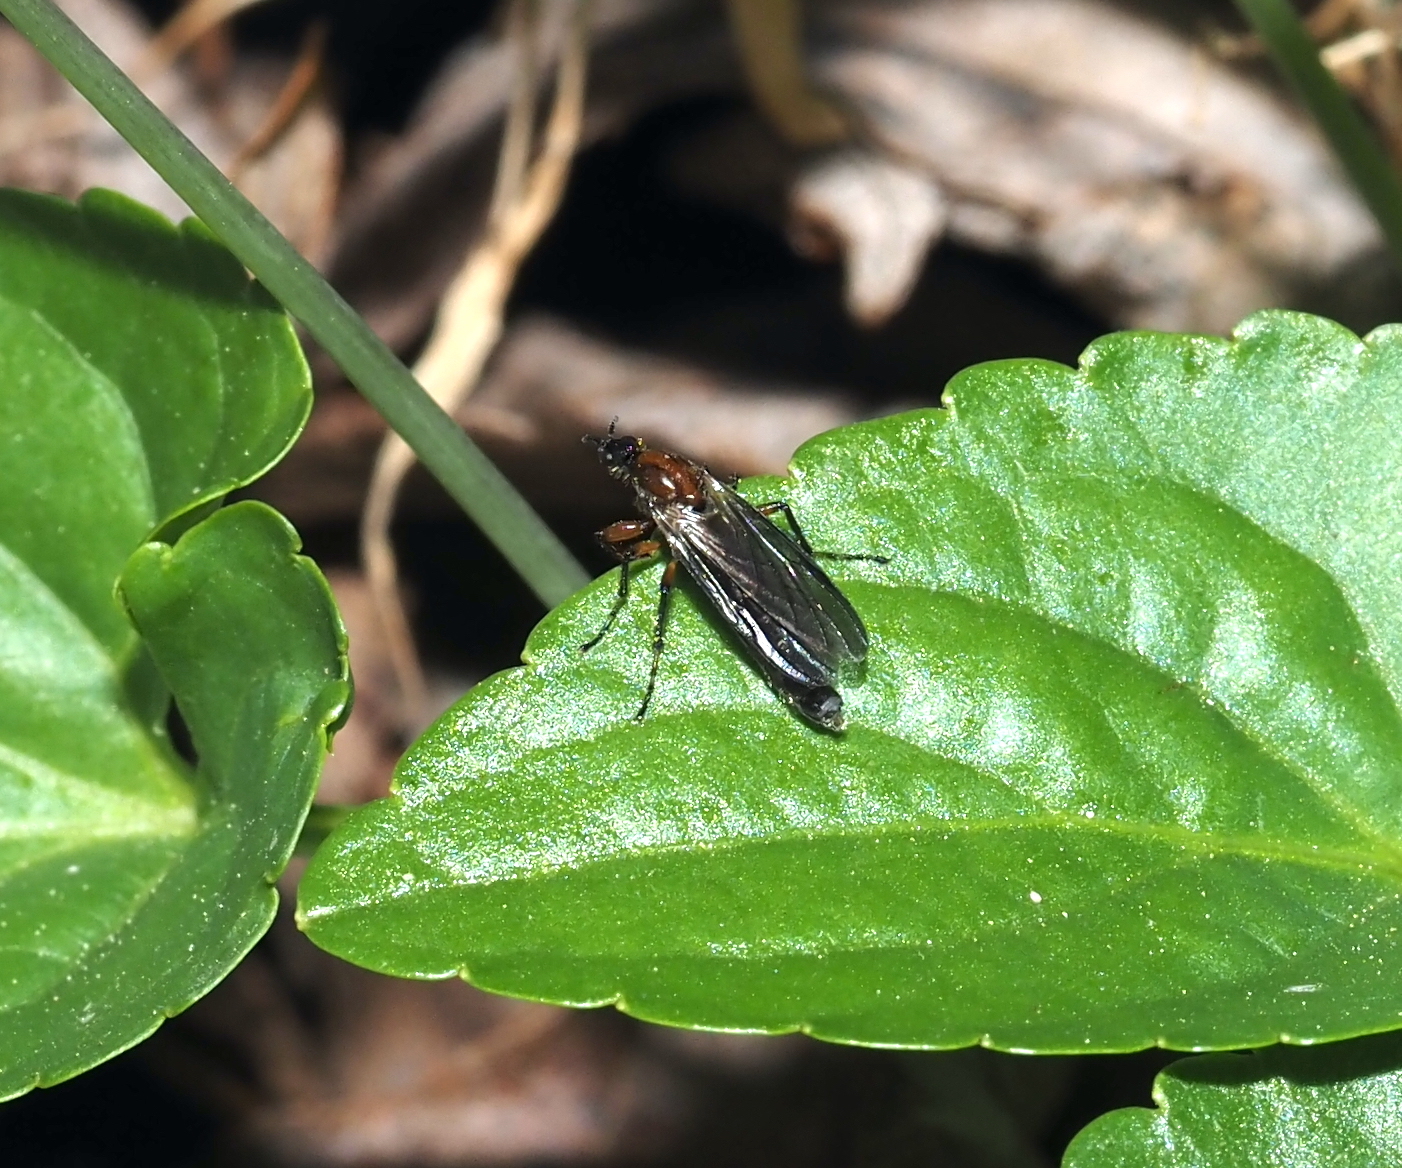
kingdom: Animalia
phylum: Arthropoda
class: Insecta
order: Diptera
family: Bibionidae
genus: Bibio
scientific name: Bibio articulatus
